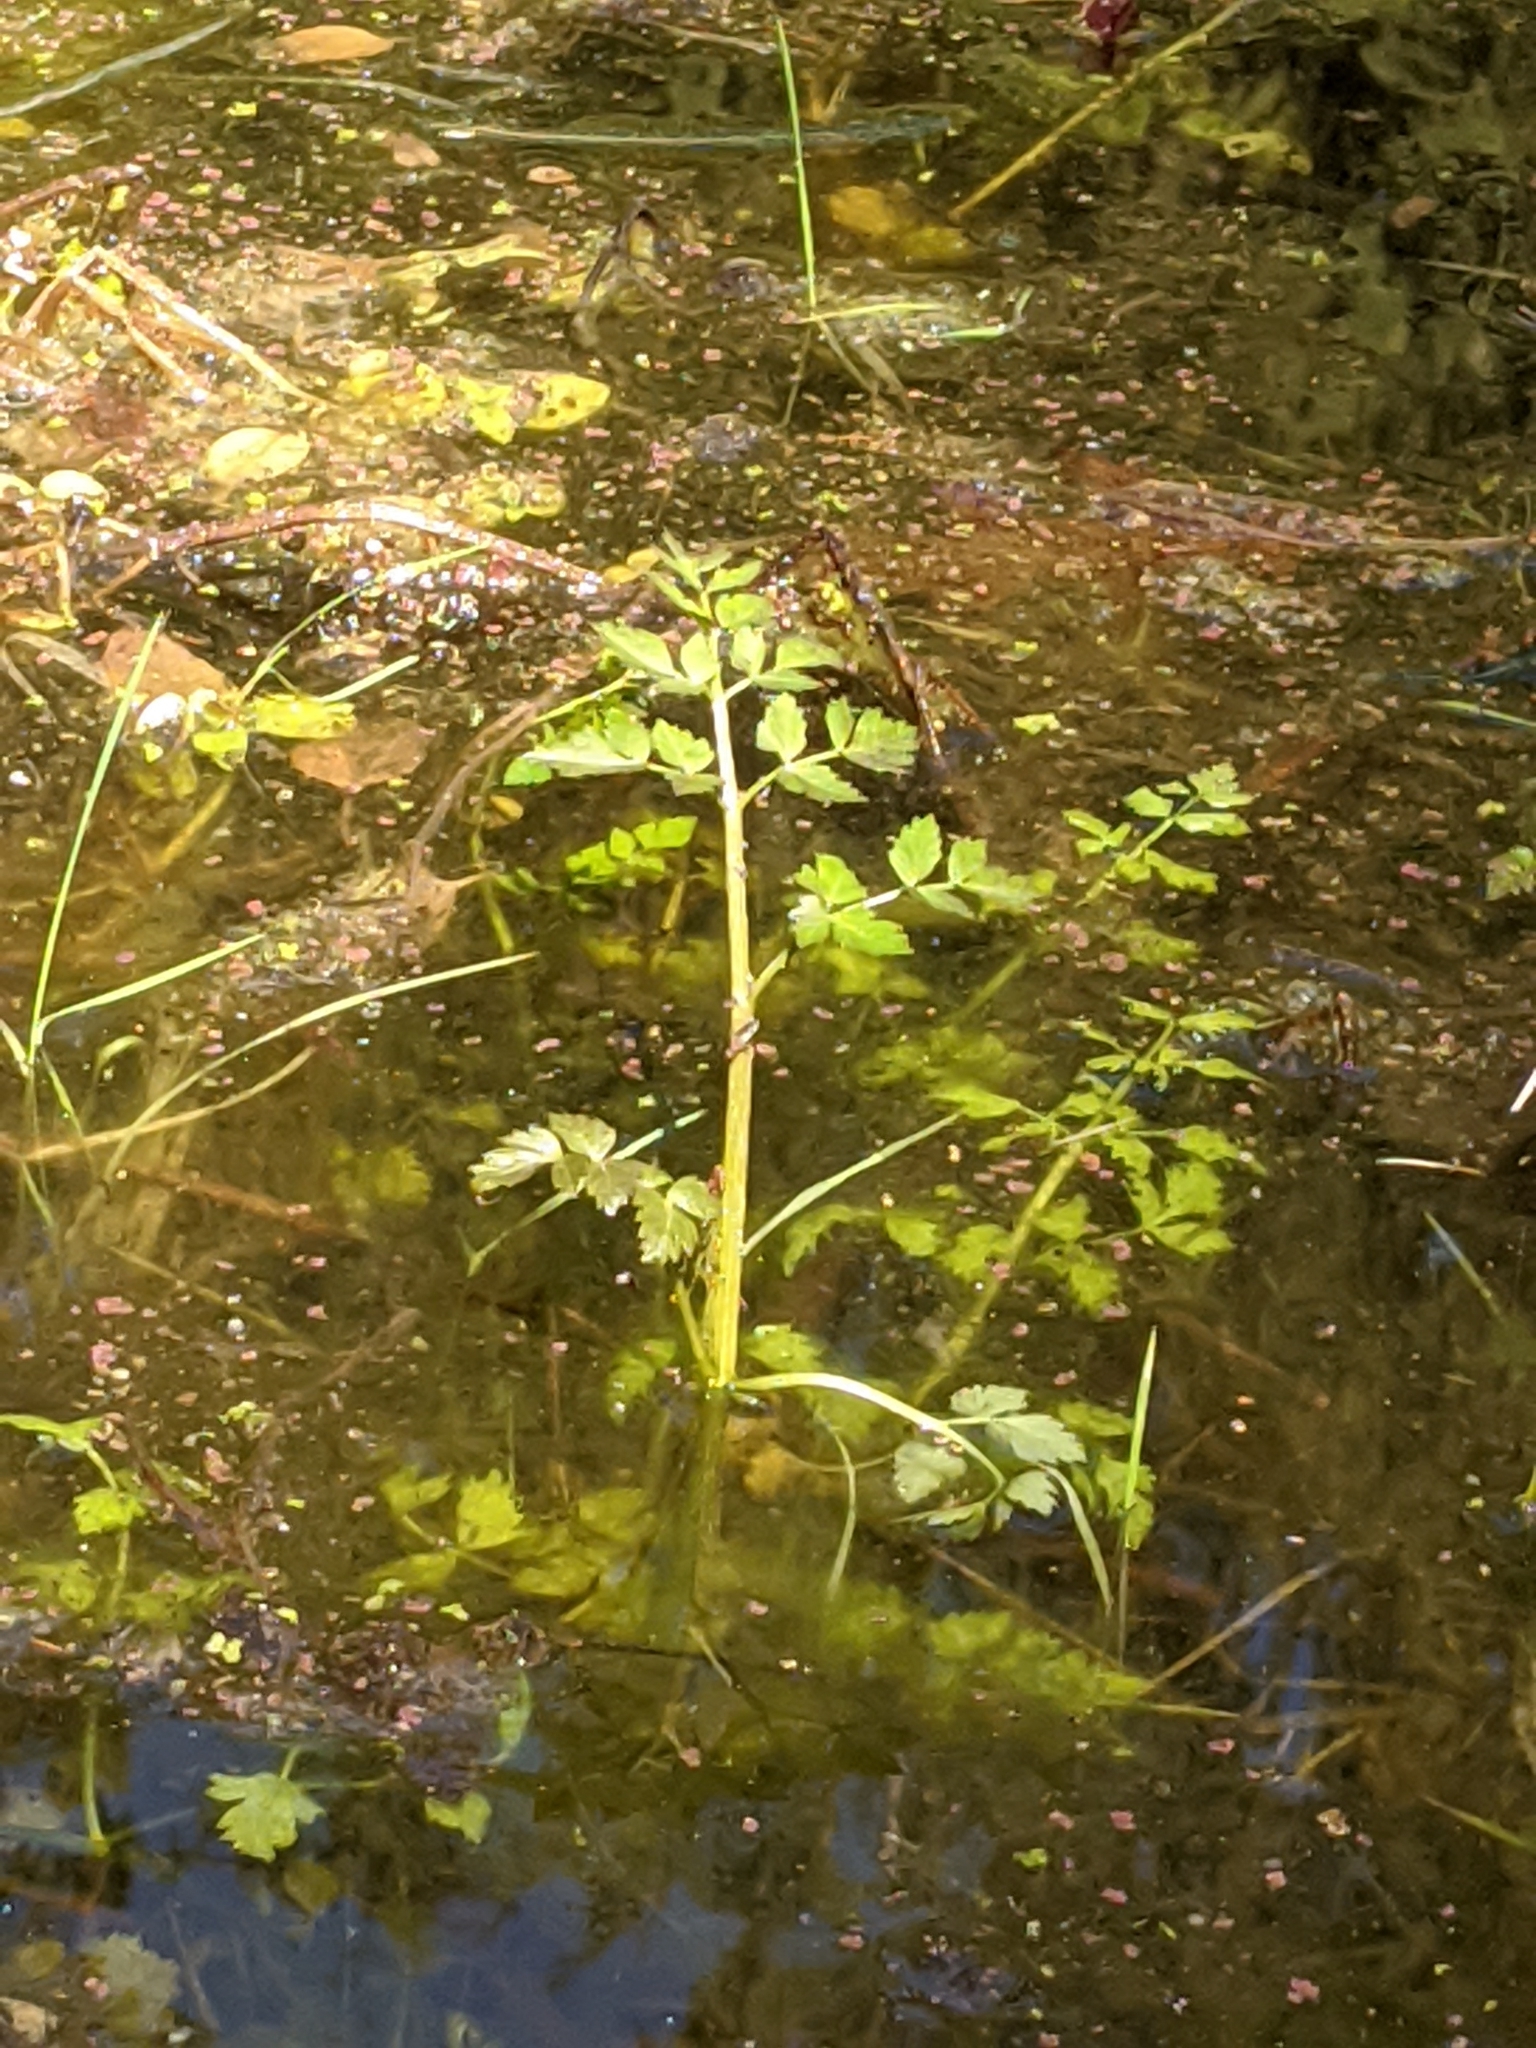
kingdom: Plantae
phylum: Tracheophyta
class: Magnoliopsida
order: Apiales
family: Apiaceae
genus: Oenanthe
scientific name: Oenanthe sarmentosa
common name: American water-parsley
